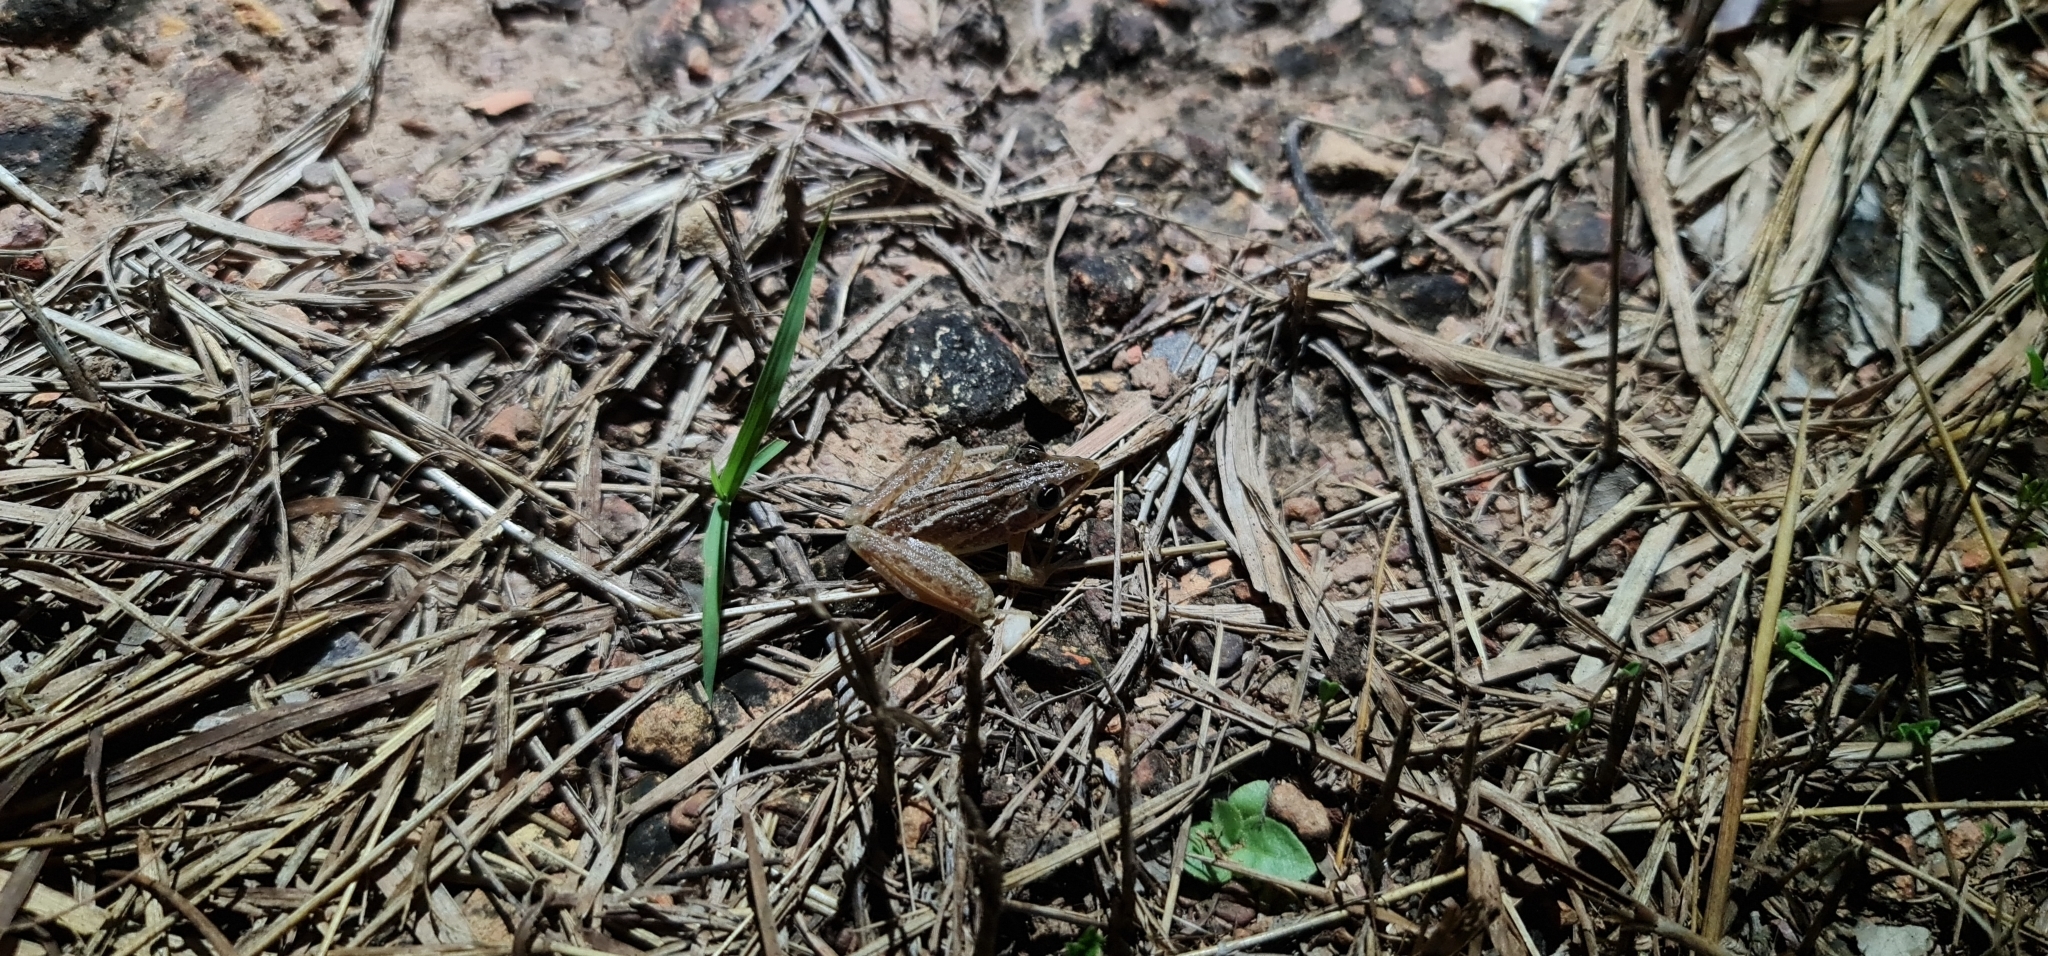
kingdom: Animalia
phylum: Chordata
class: Amphibia
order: Anura
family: Pelodryadidae
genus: Litoria
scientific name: Litoria nasuta
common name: Rocket frog
